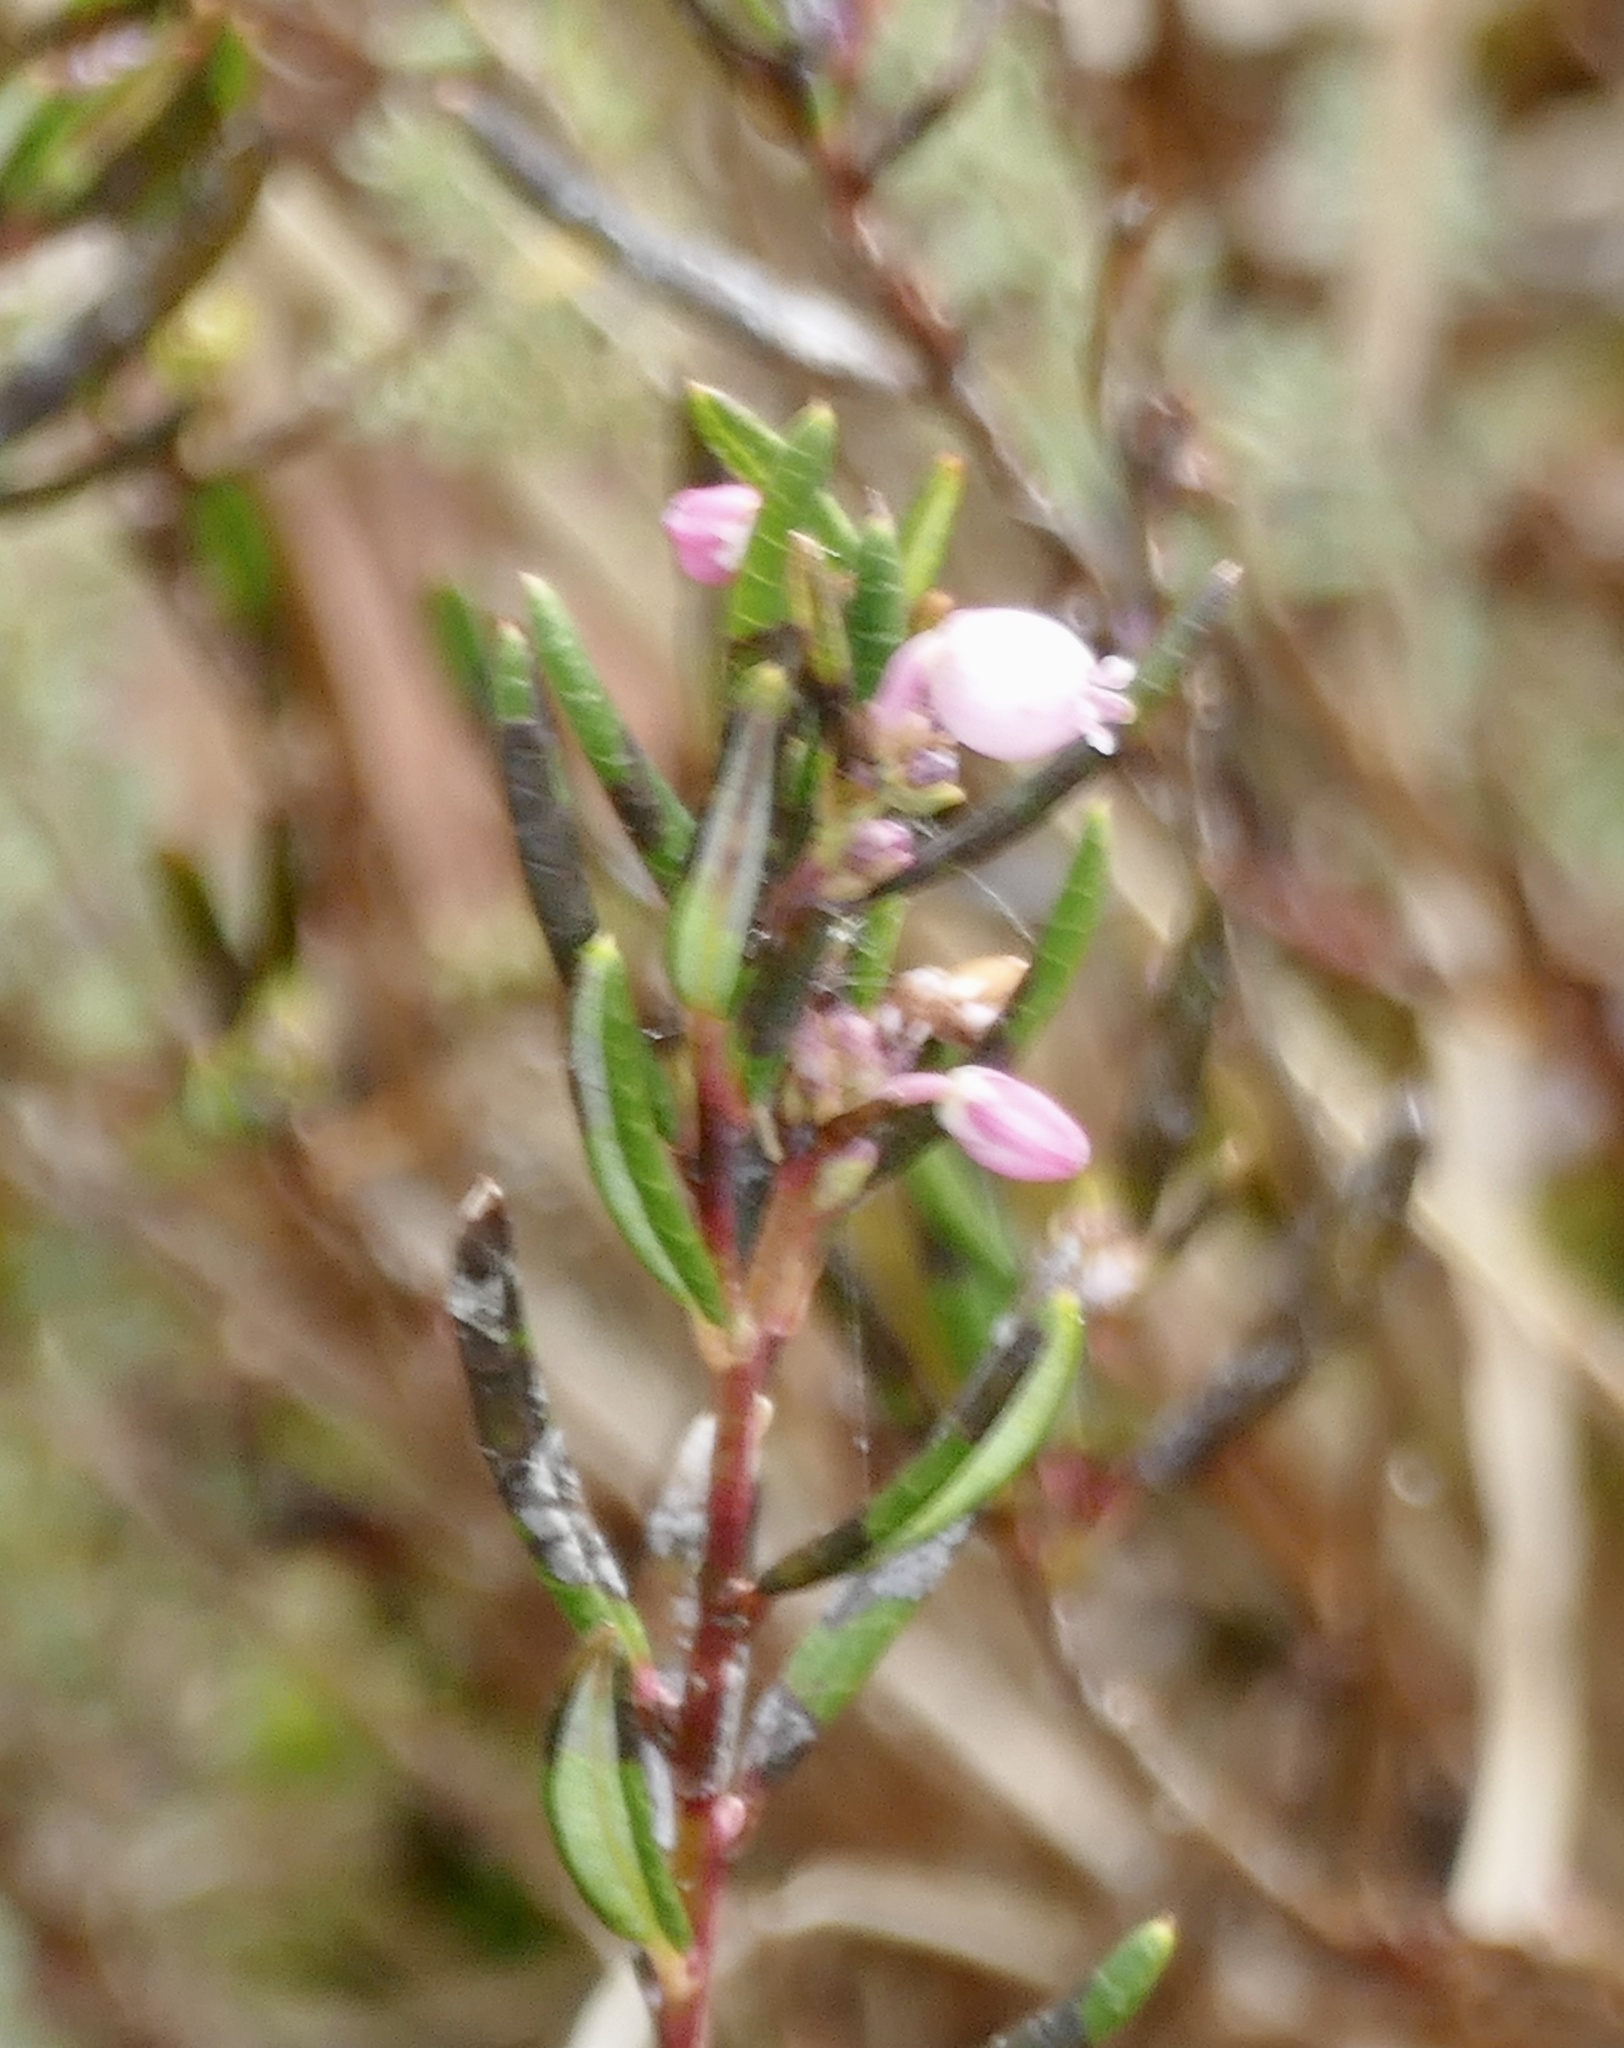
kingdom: Plantae
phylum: Tracheophyta
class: Magnoliopsida
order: Ericales
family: Ericaceae
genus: Andromeda
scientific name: Andromeda polifolia
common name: Bog-rosemary
